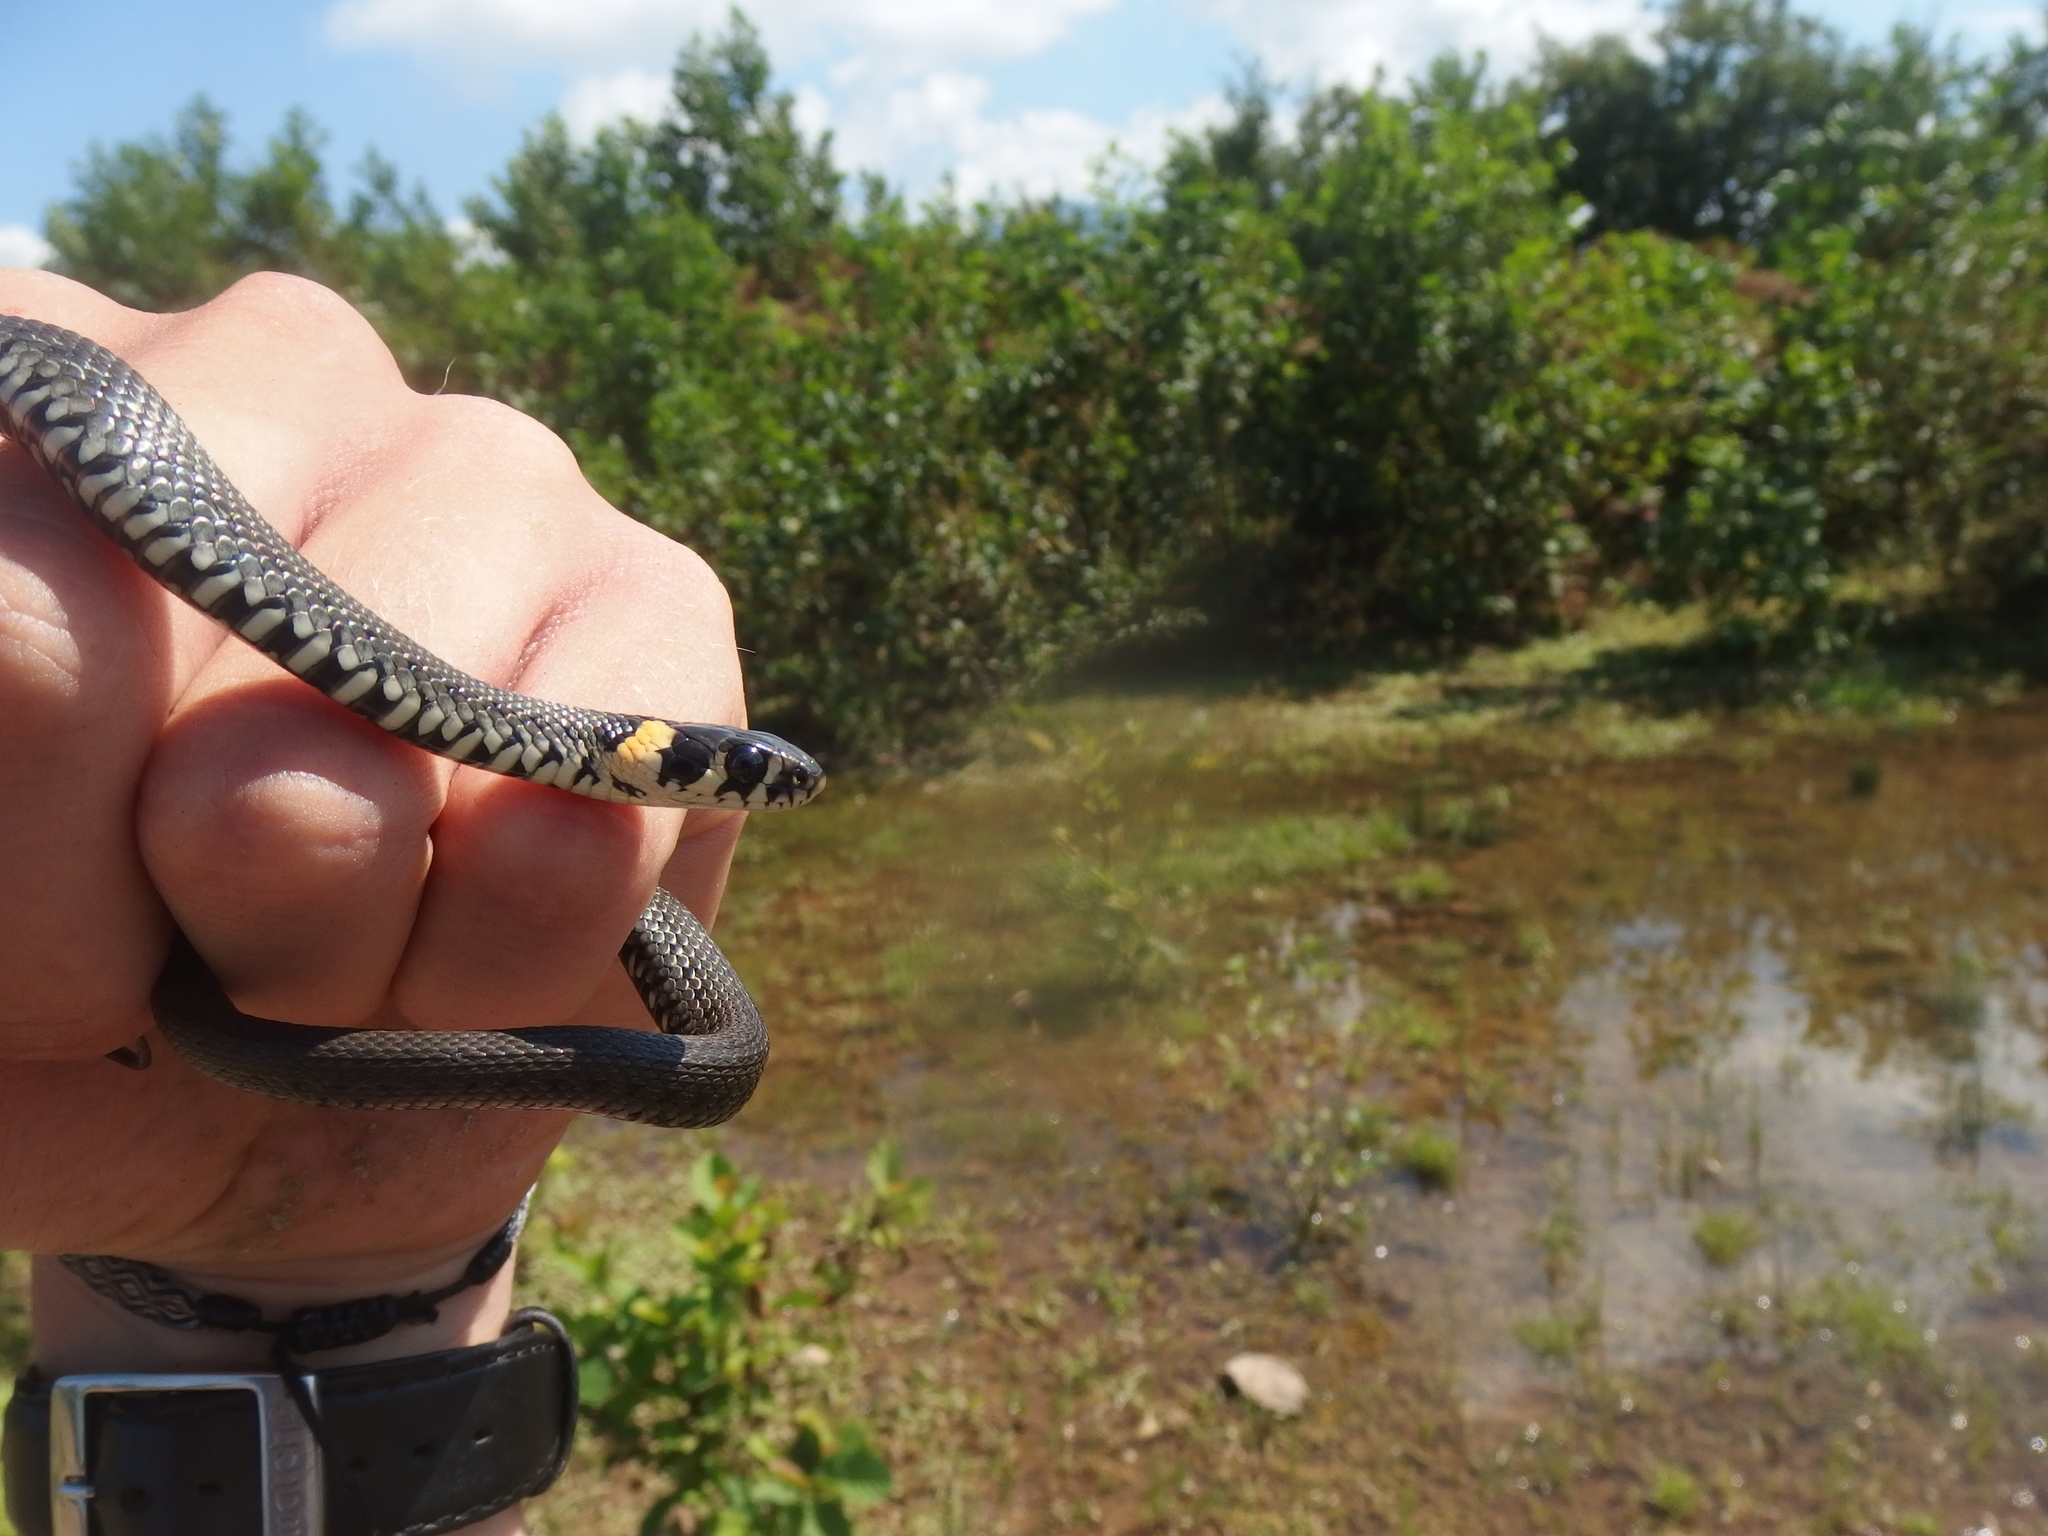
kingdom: Animalia
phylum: Chordata
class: Squamata
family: Colubridae
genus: Natrix
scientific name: Natrix natrix
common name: Grass snake
